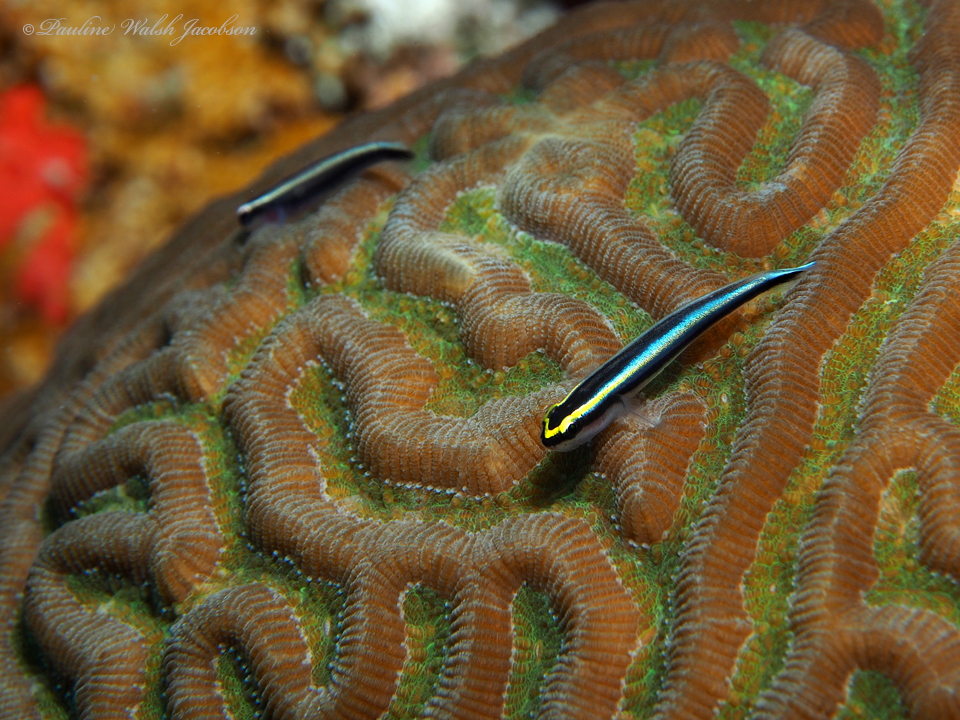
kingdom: Animalia
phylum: Chordata
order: Perciformes
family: Gobiidae
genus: Elacatinus
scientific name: Elacatinus evelynae
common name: Sharknose goby
